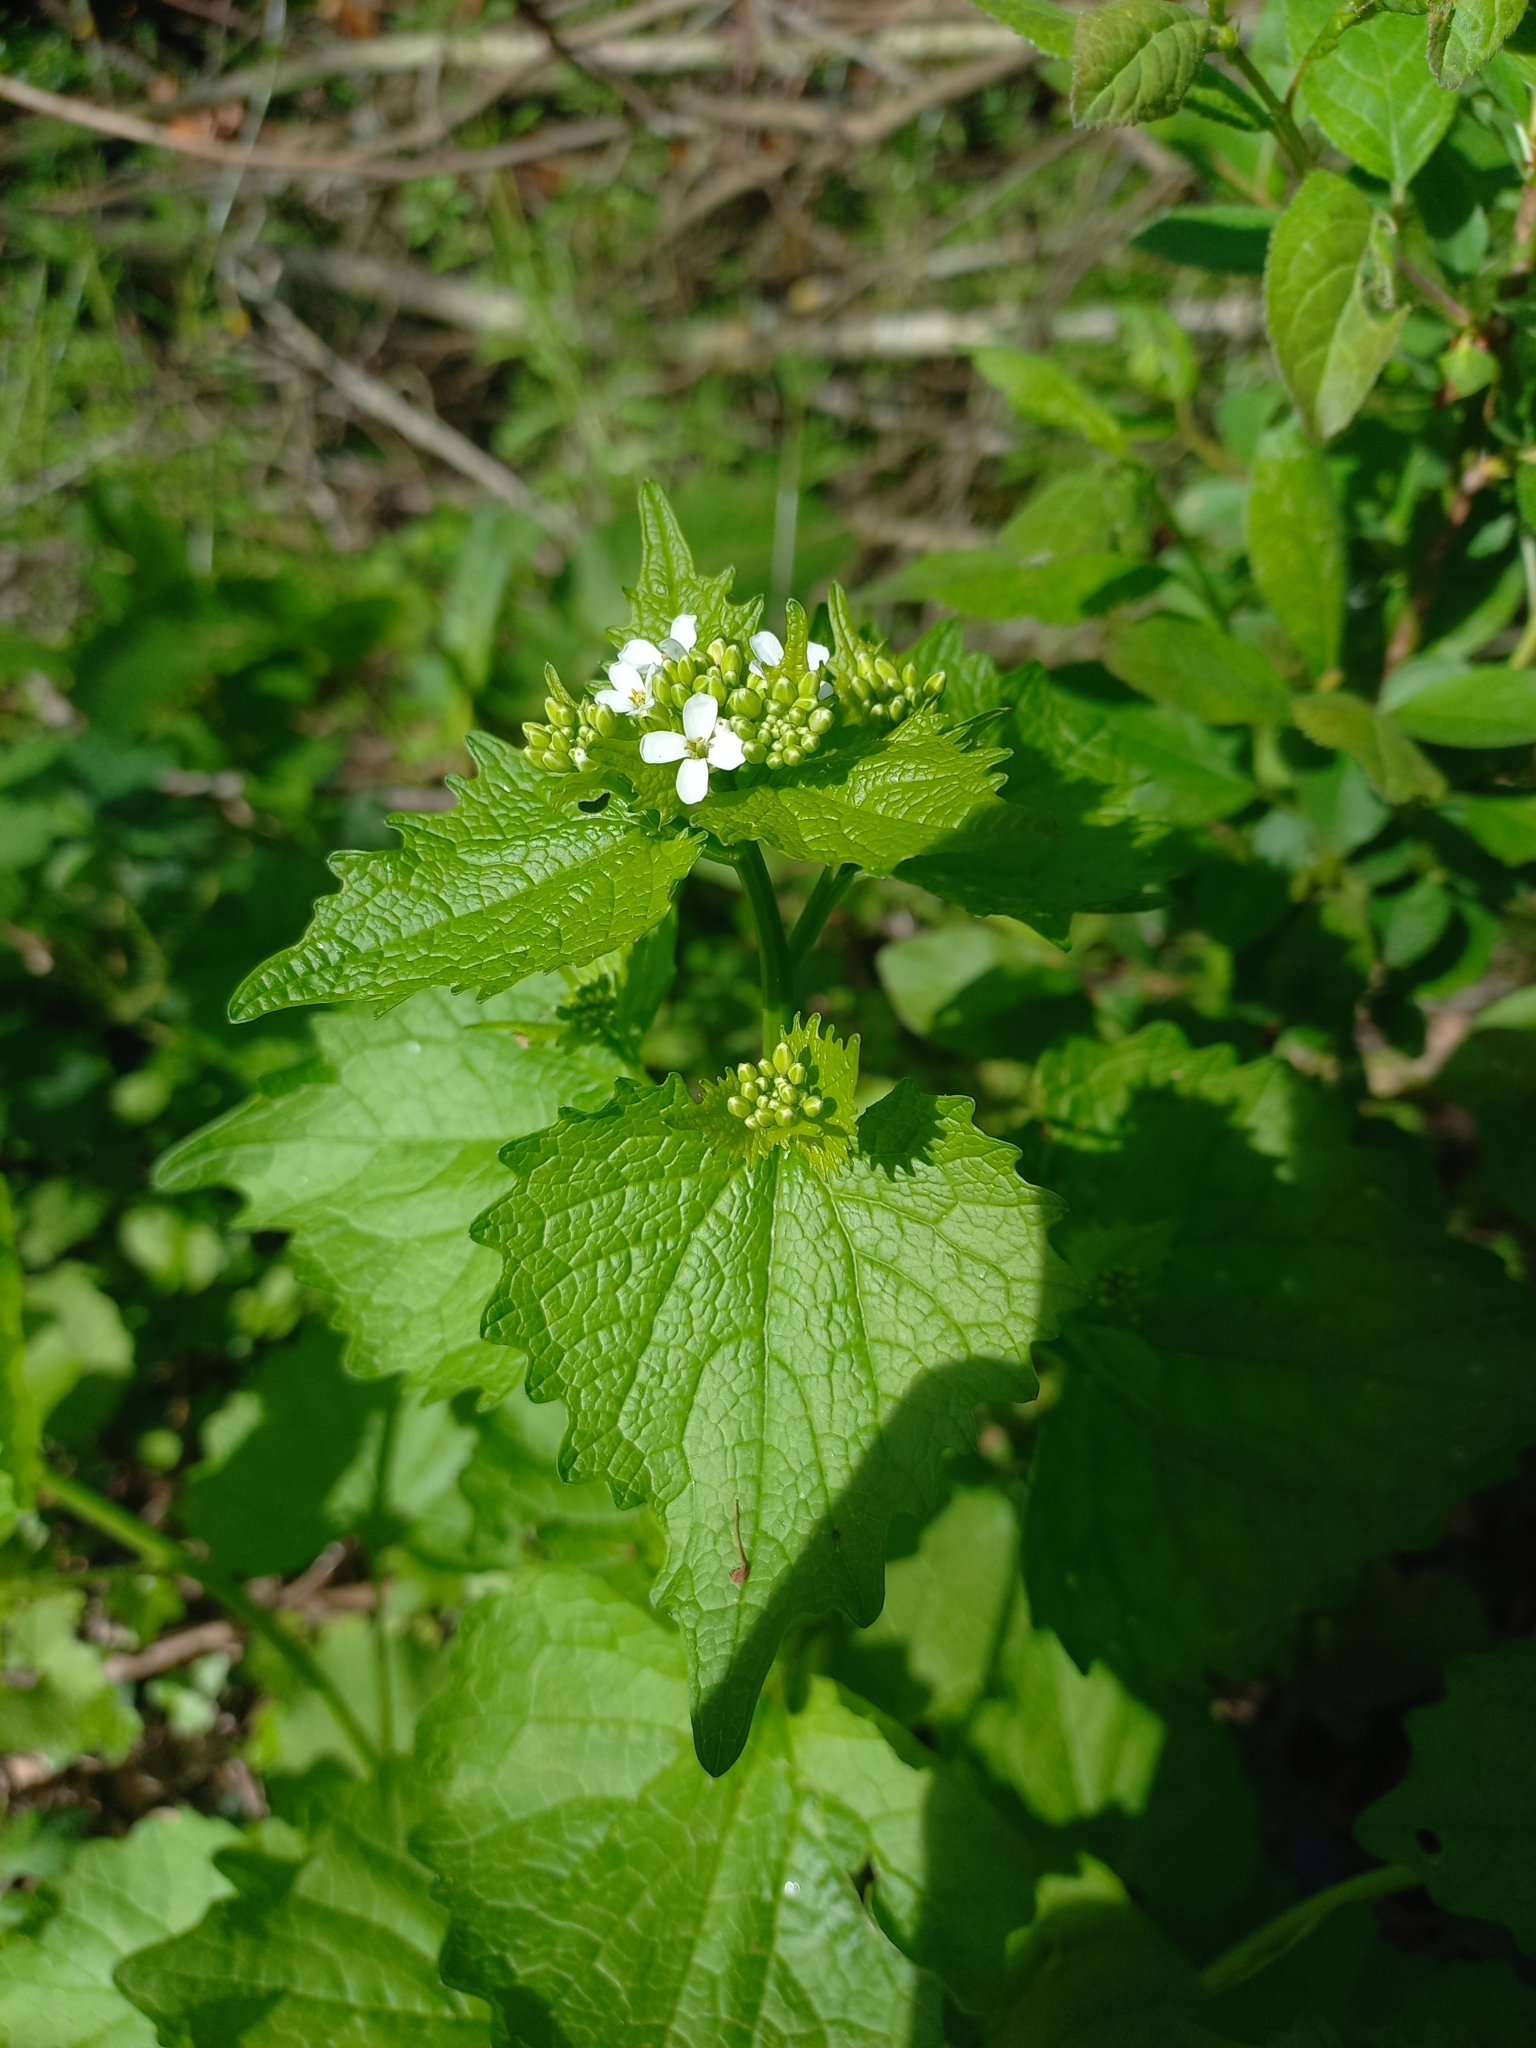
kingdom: Plantae
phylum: Tracheophyta
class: Magnoliopsida
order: Brassicales
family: Brassicaceae
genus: Alliaria
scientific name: Alliaria petiolata
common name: Garlic mustard
